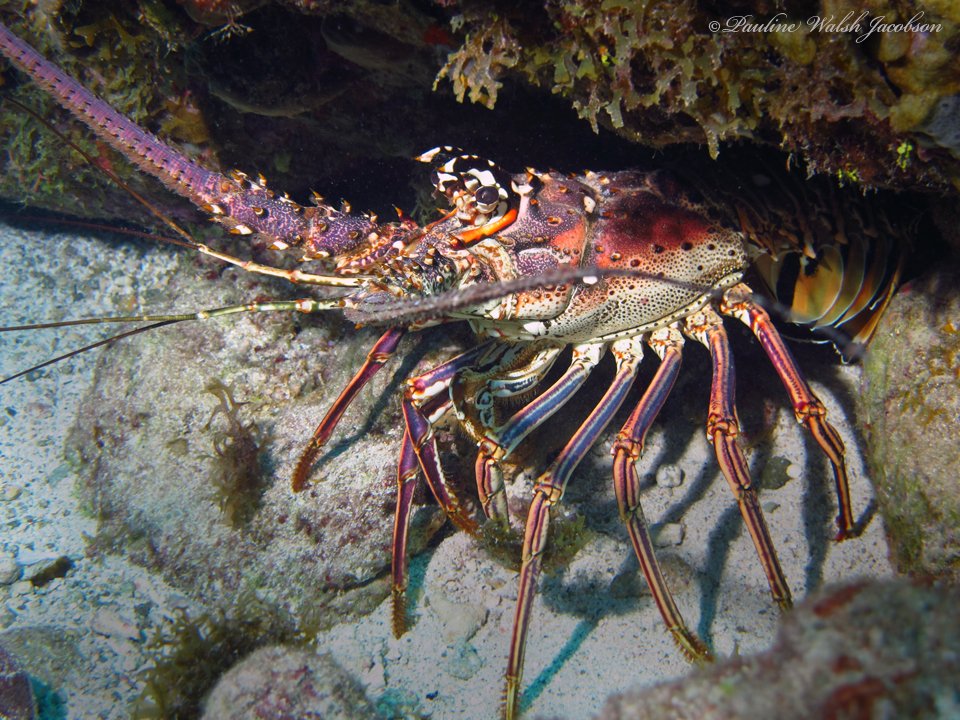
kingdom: Animalia
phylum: Arthropoda
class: Malacostraca
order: Decapoda
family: Palinuridae
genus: Panulirus
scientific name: Panulirus argus
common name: Caribbean spiny lobster
